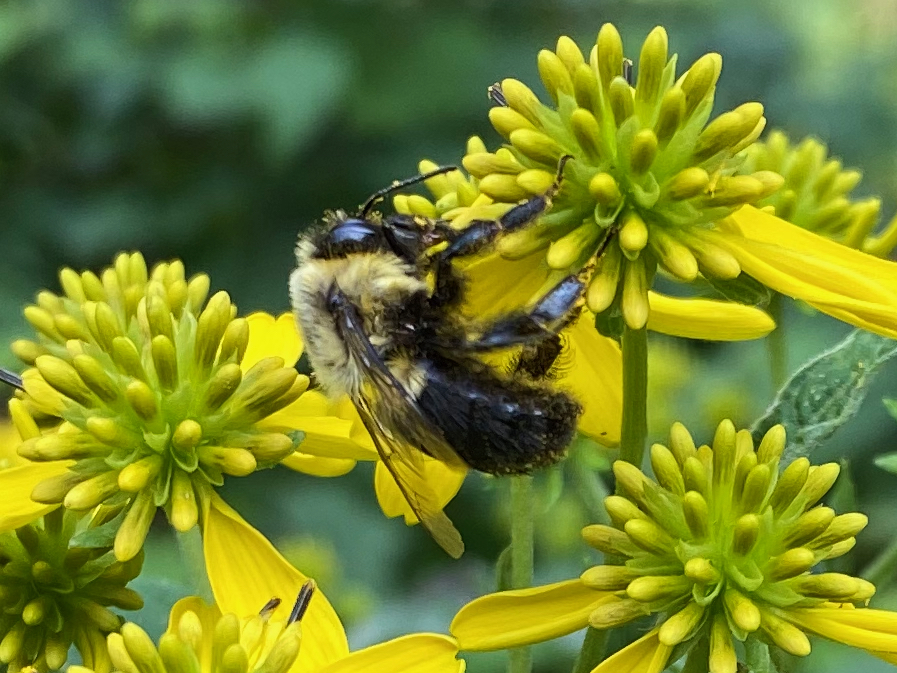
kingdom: Animalia
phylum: Arthropoda
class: Insecta
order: Hymenoptera
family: Apidae
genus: Bombus
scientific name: Bombus impatiens
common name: Common eastern bumble bee
